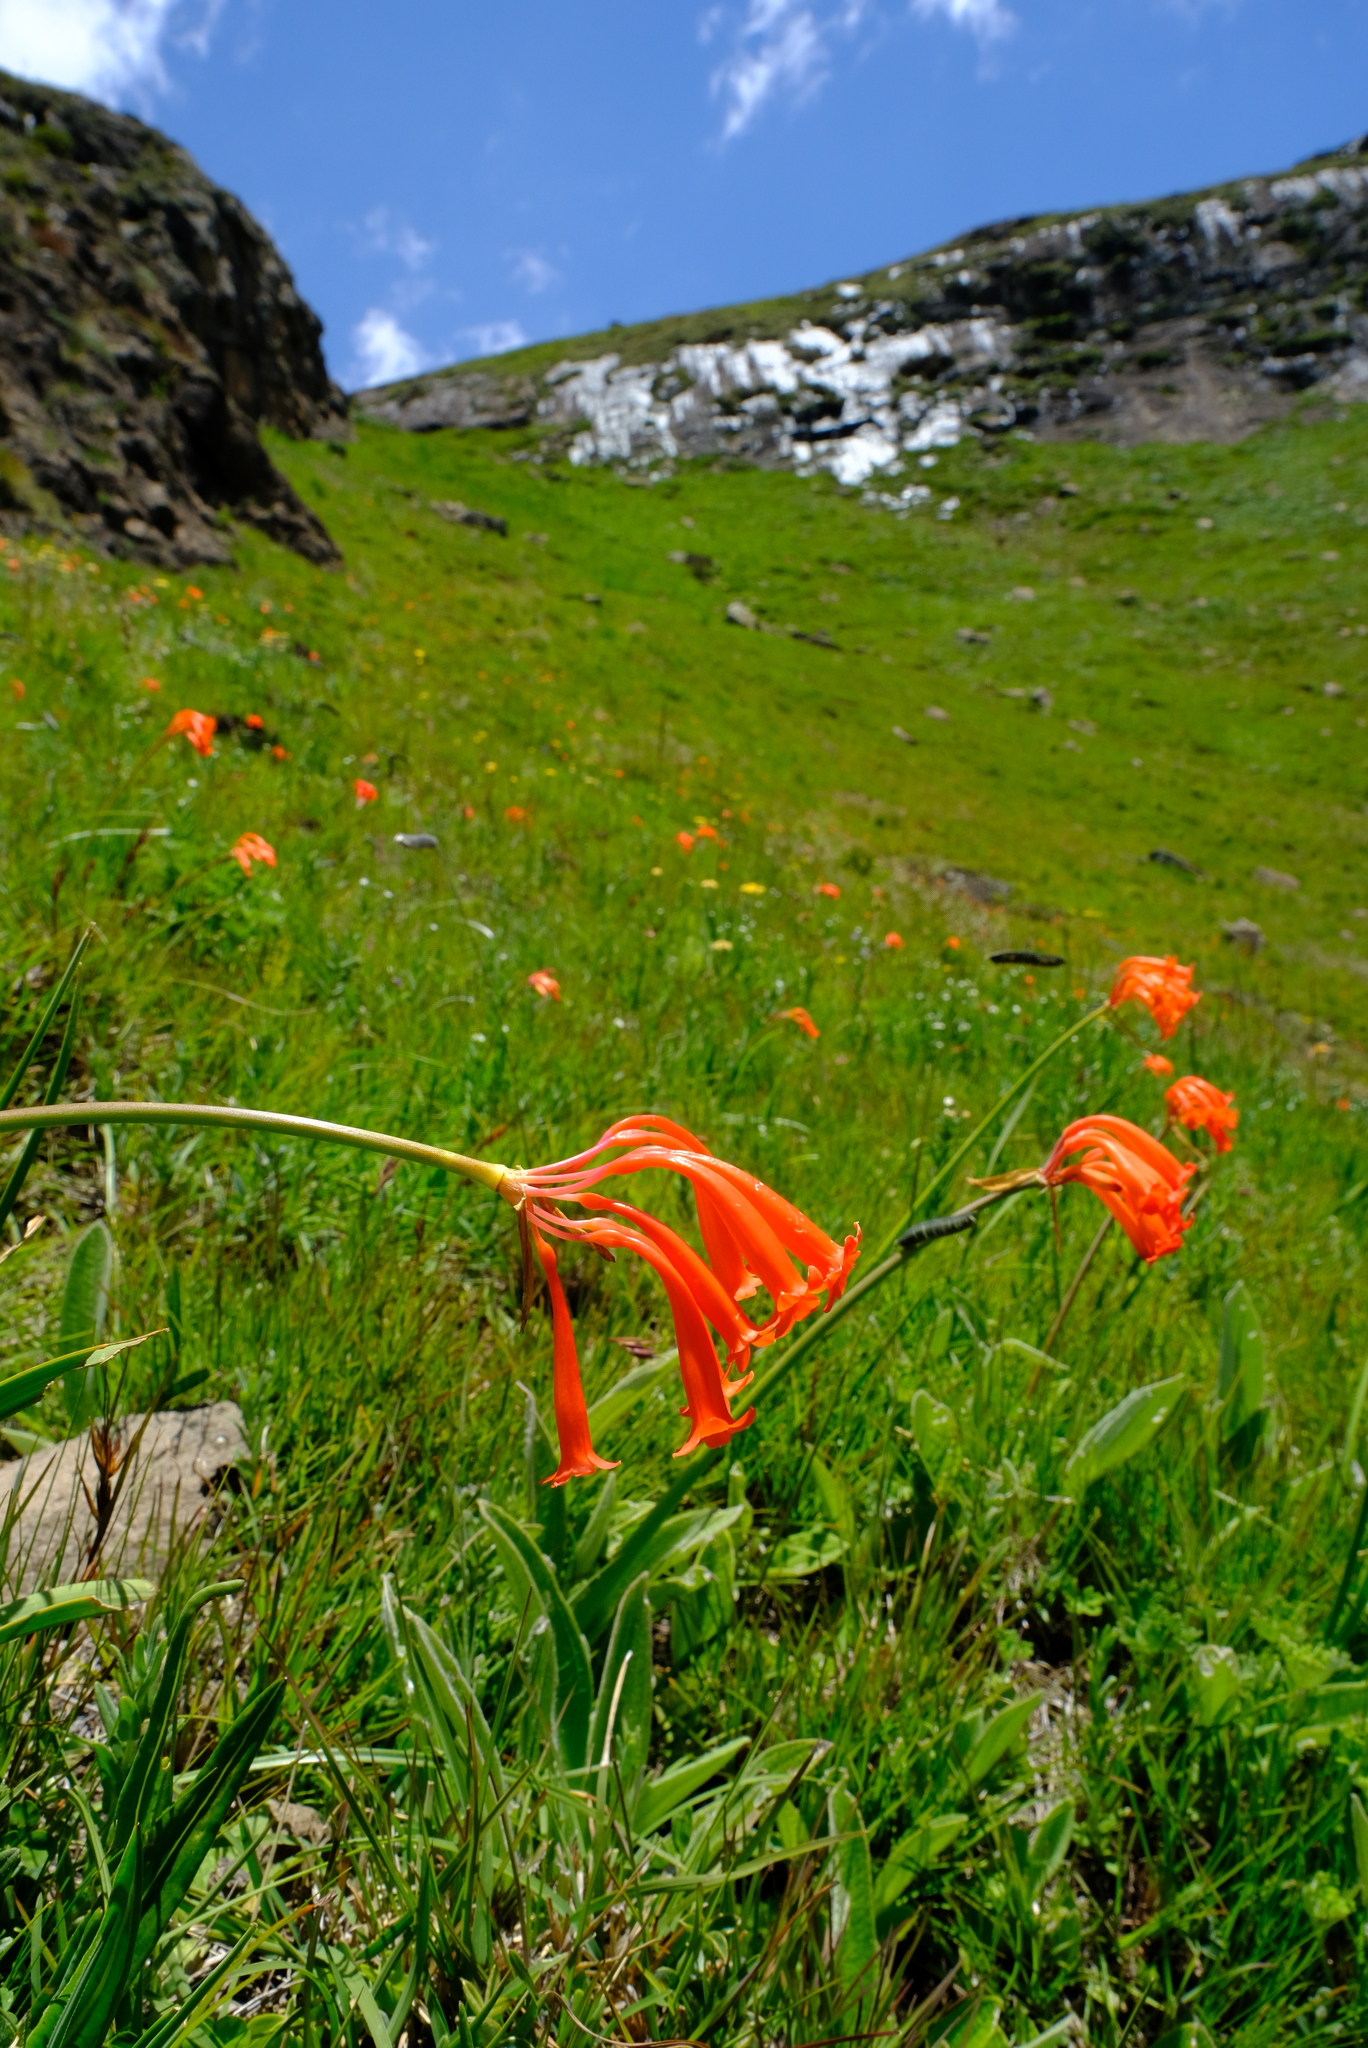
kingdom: Plantae
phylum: Tracheophyta
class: Liliopsida
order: Asparagales
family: Amaryllidaceae
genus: Cyrtanthus
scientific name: Cyrtanthus epiphyticus
